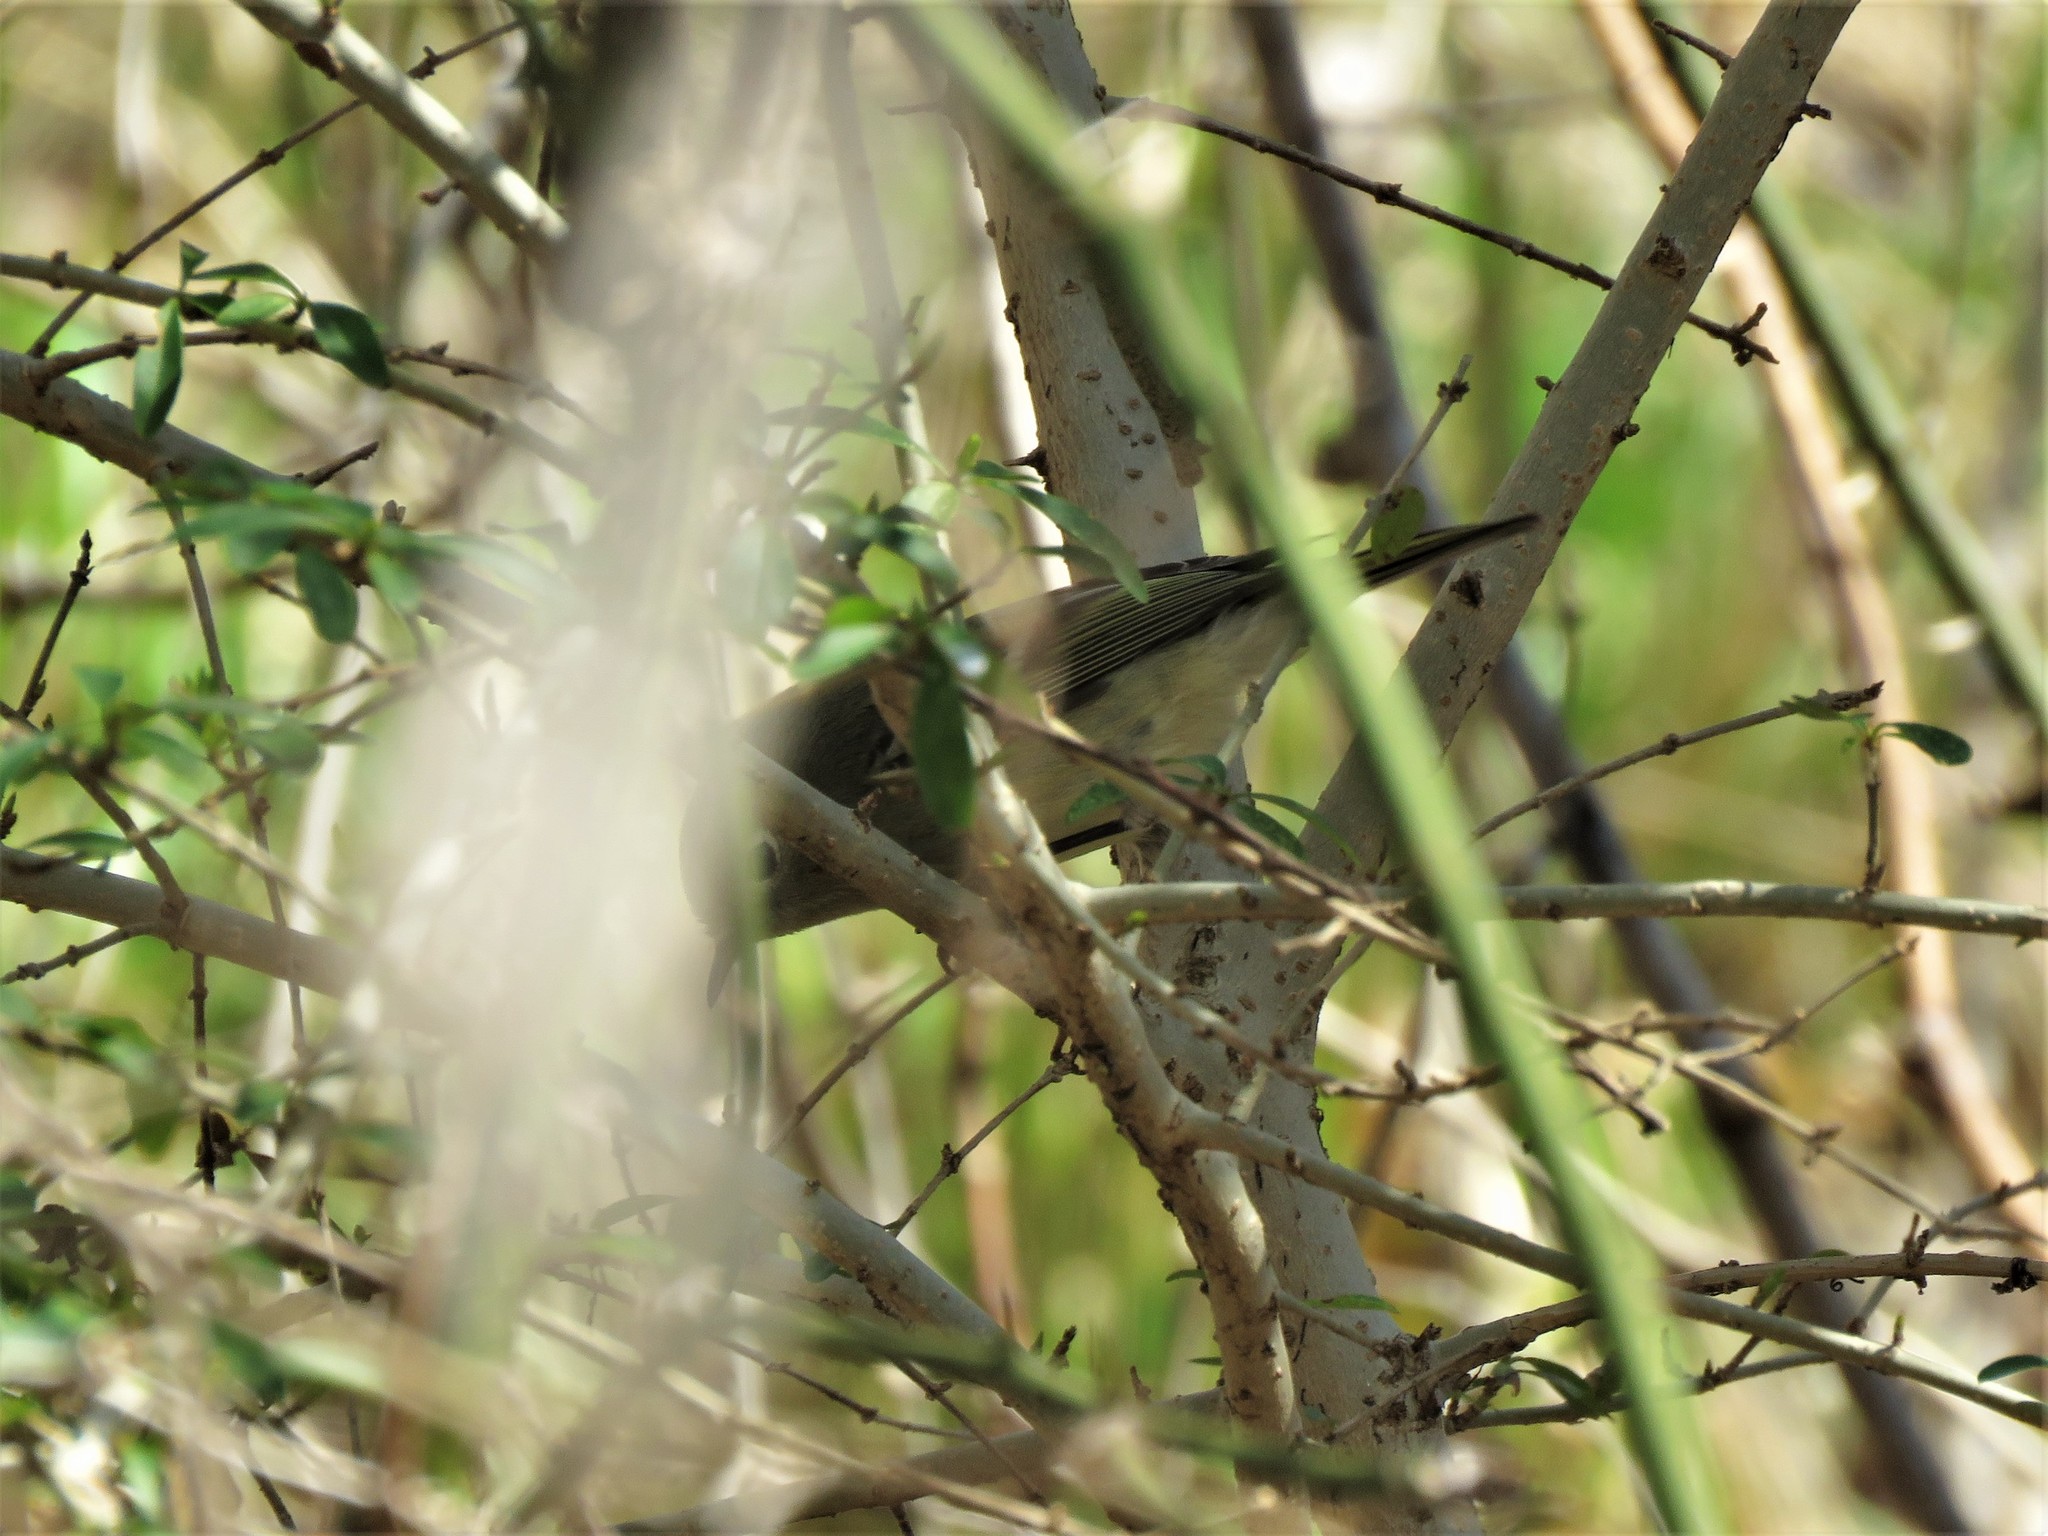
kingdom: Animalia
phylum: Chordata
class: Aves
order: Passeriformes
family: Regulidae
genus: Regulus
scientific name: Regulus calendula
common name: Ruby-crowned kinglet
